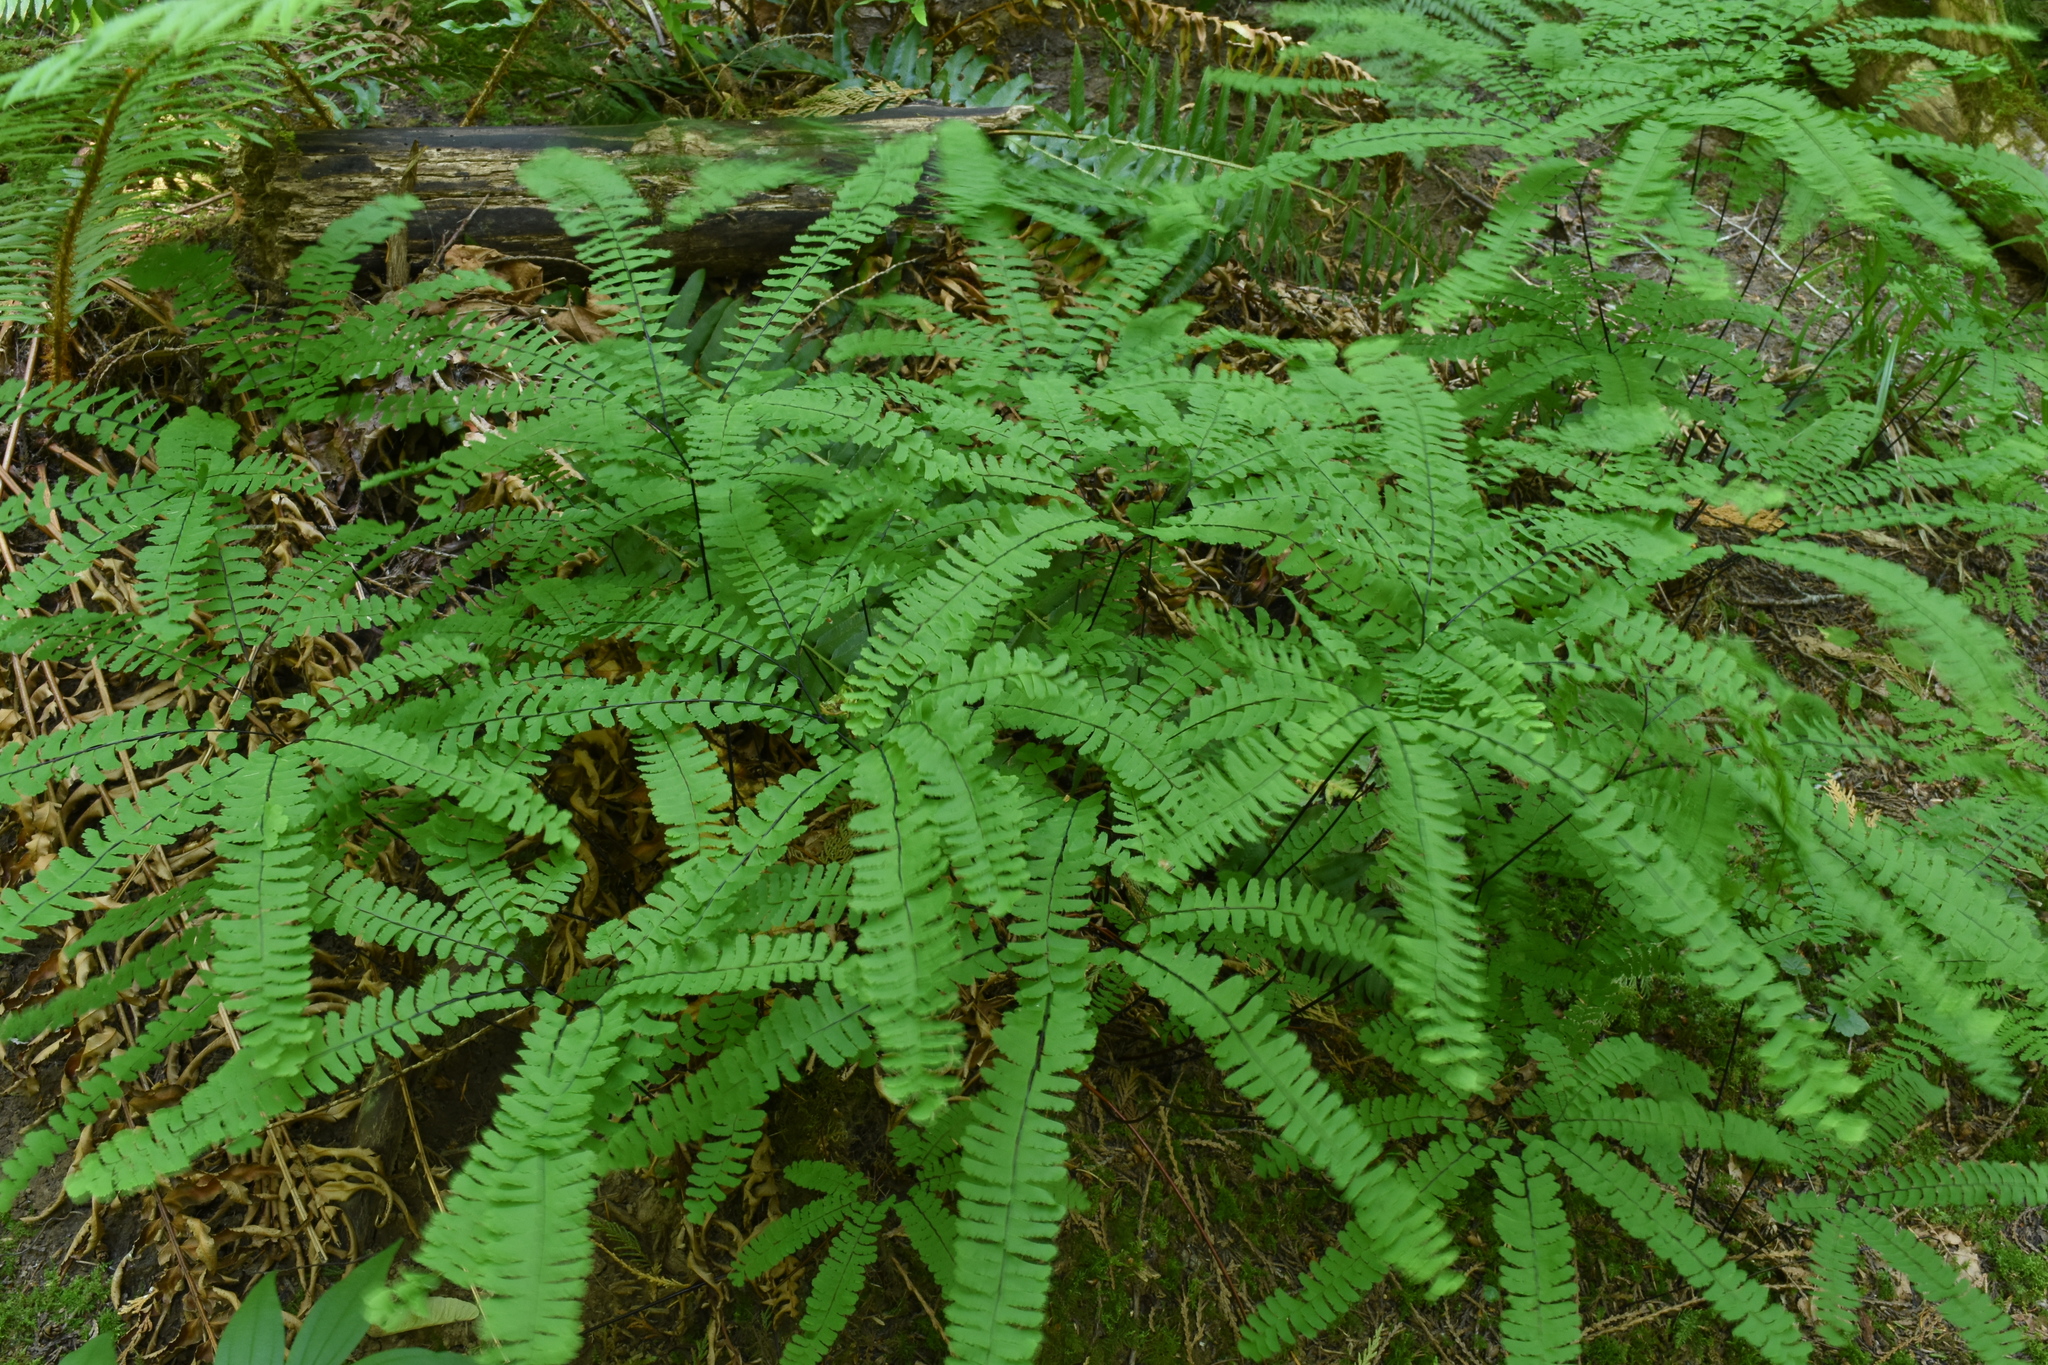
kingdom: Plantae
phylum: Tracheophyta
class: Polypodiopsida
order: Polypodiales
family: Pteridaceae
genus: Adiantum
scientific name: Adiantum aleuticum
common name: Aleutian maidenhair fern
